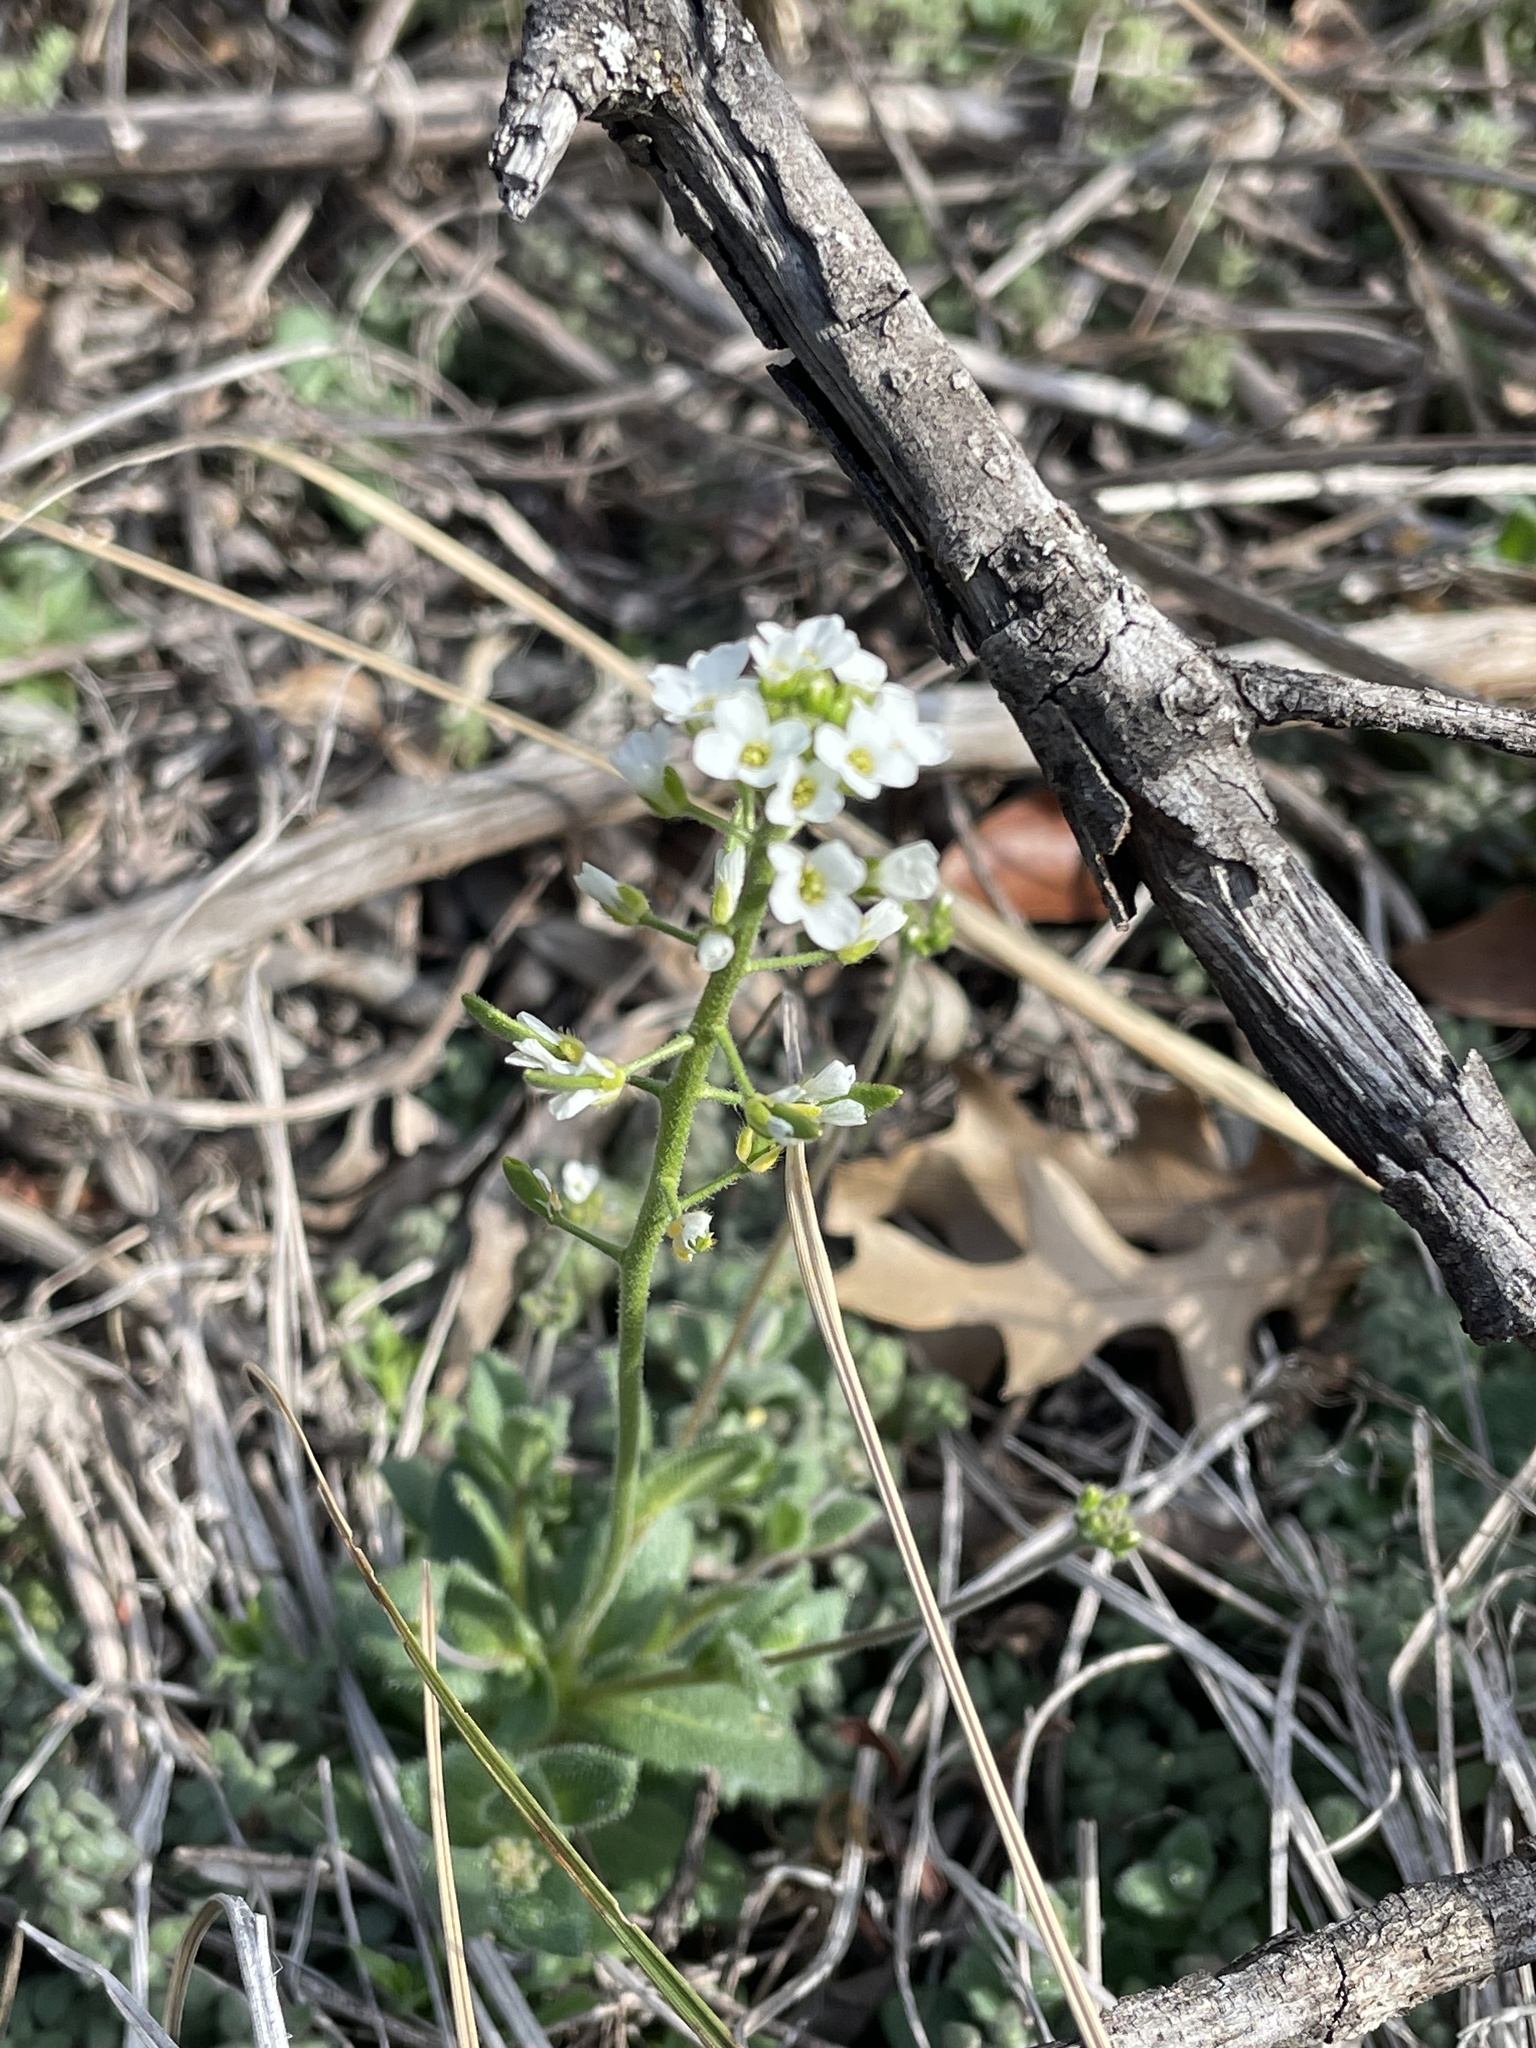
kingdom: Plantae
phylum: Tracheophyta
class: Magnoliopsida
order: Brassicales
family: Brassicaceae
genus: Tomostima
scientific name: Tomostima cuneifolia
